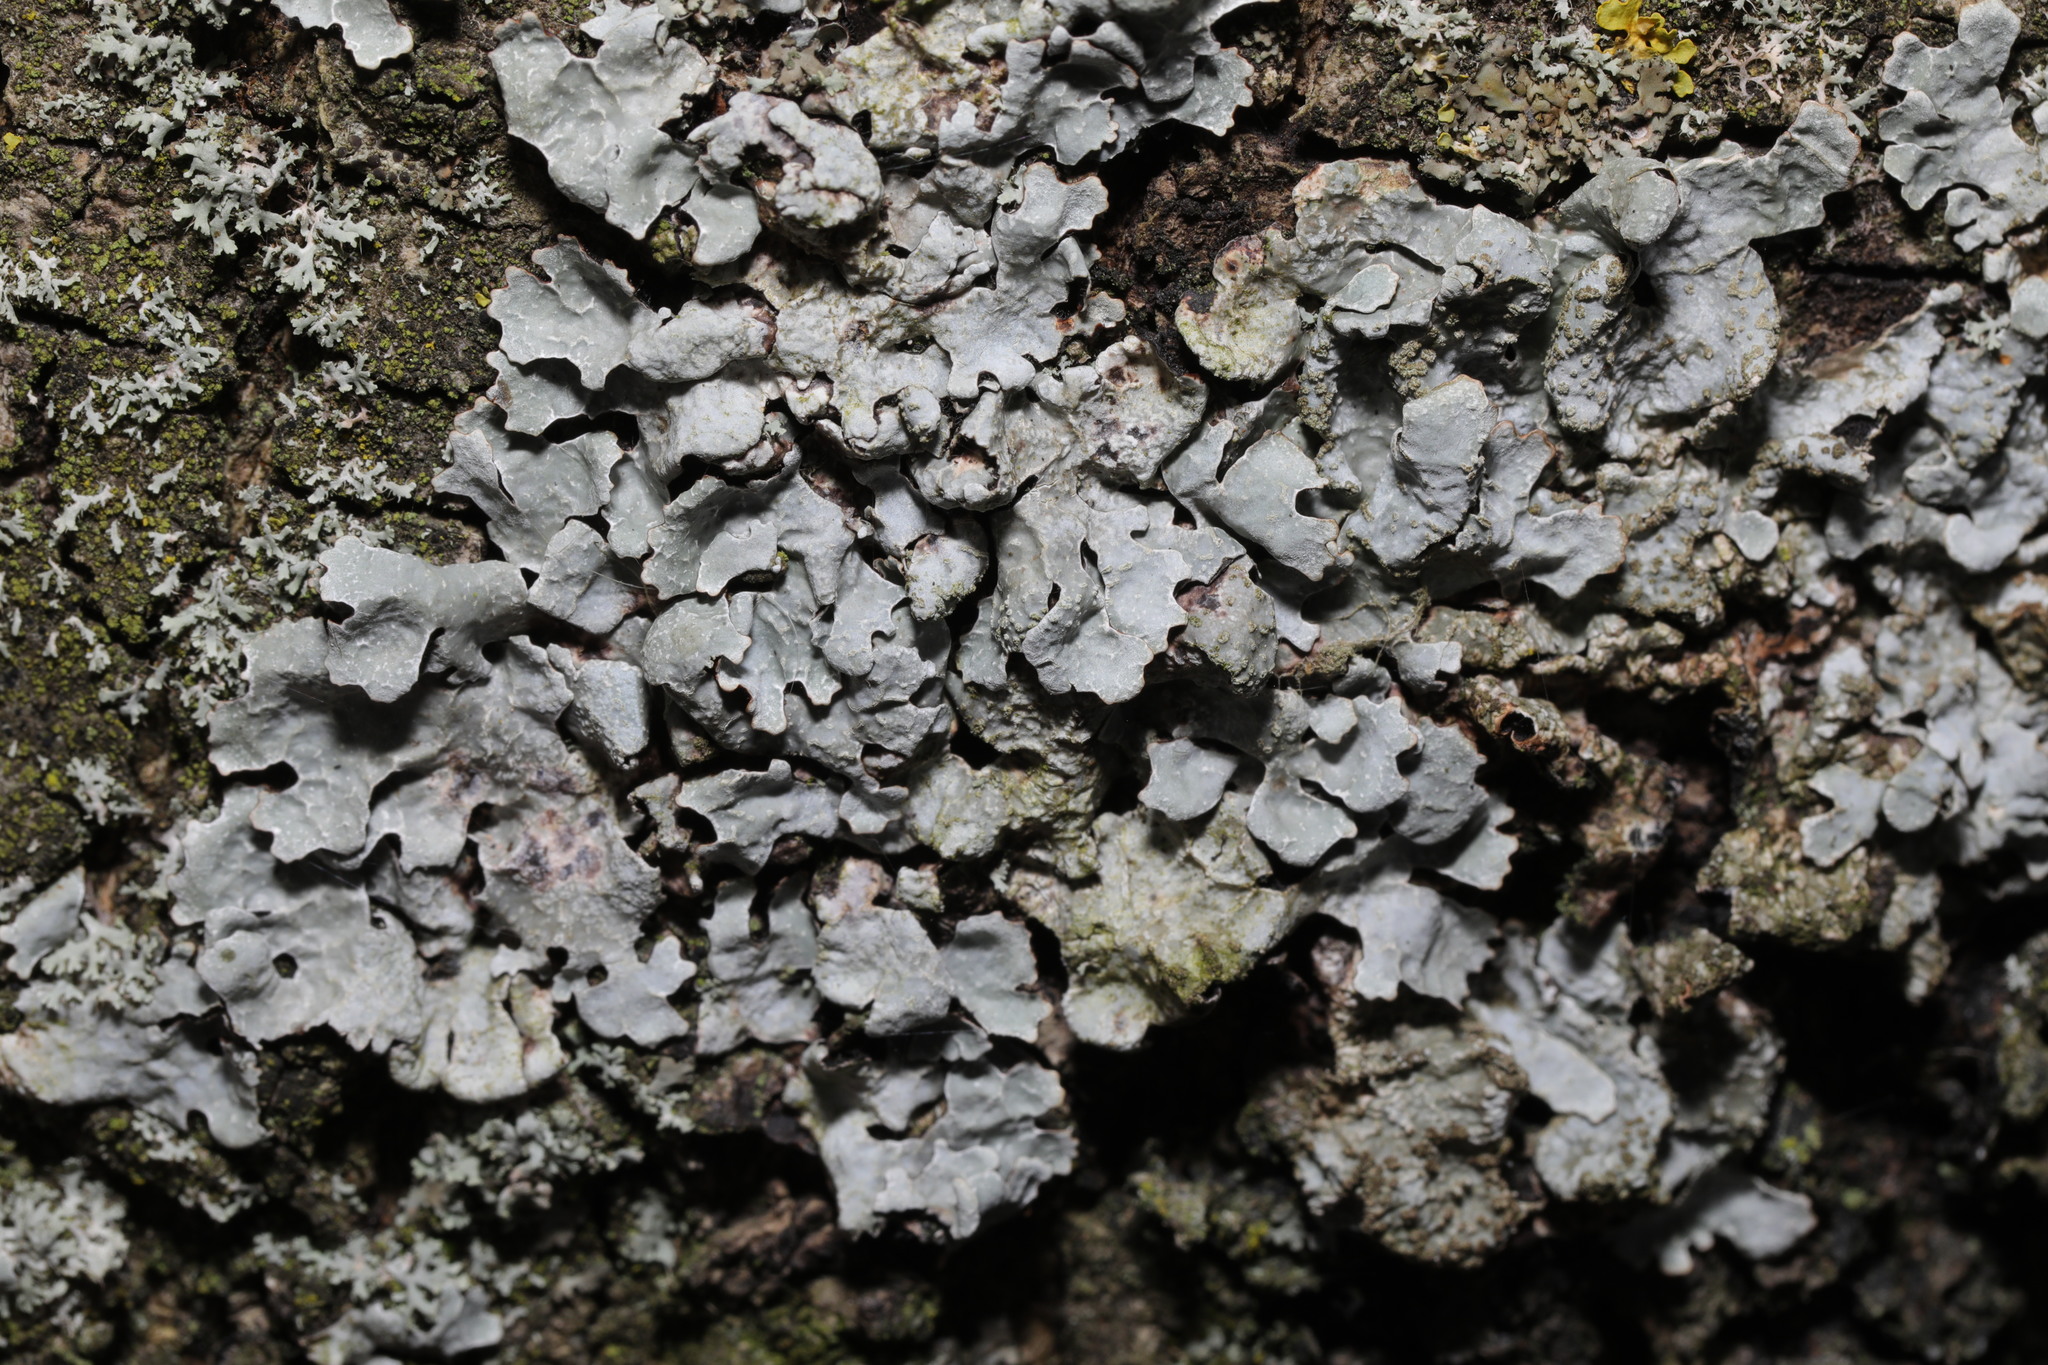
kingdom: Fungi
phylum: Ascomycota
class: Lecanoromycetes
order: Lecanorales
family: Parmeliaceae
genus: Parmelia
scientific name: Parmelia sulcata
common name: Netted shield lichen
